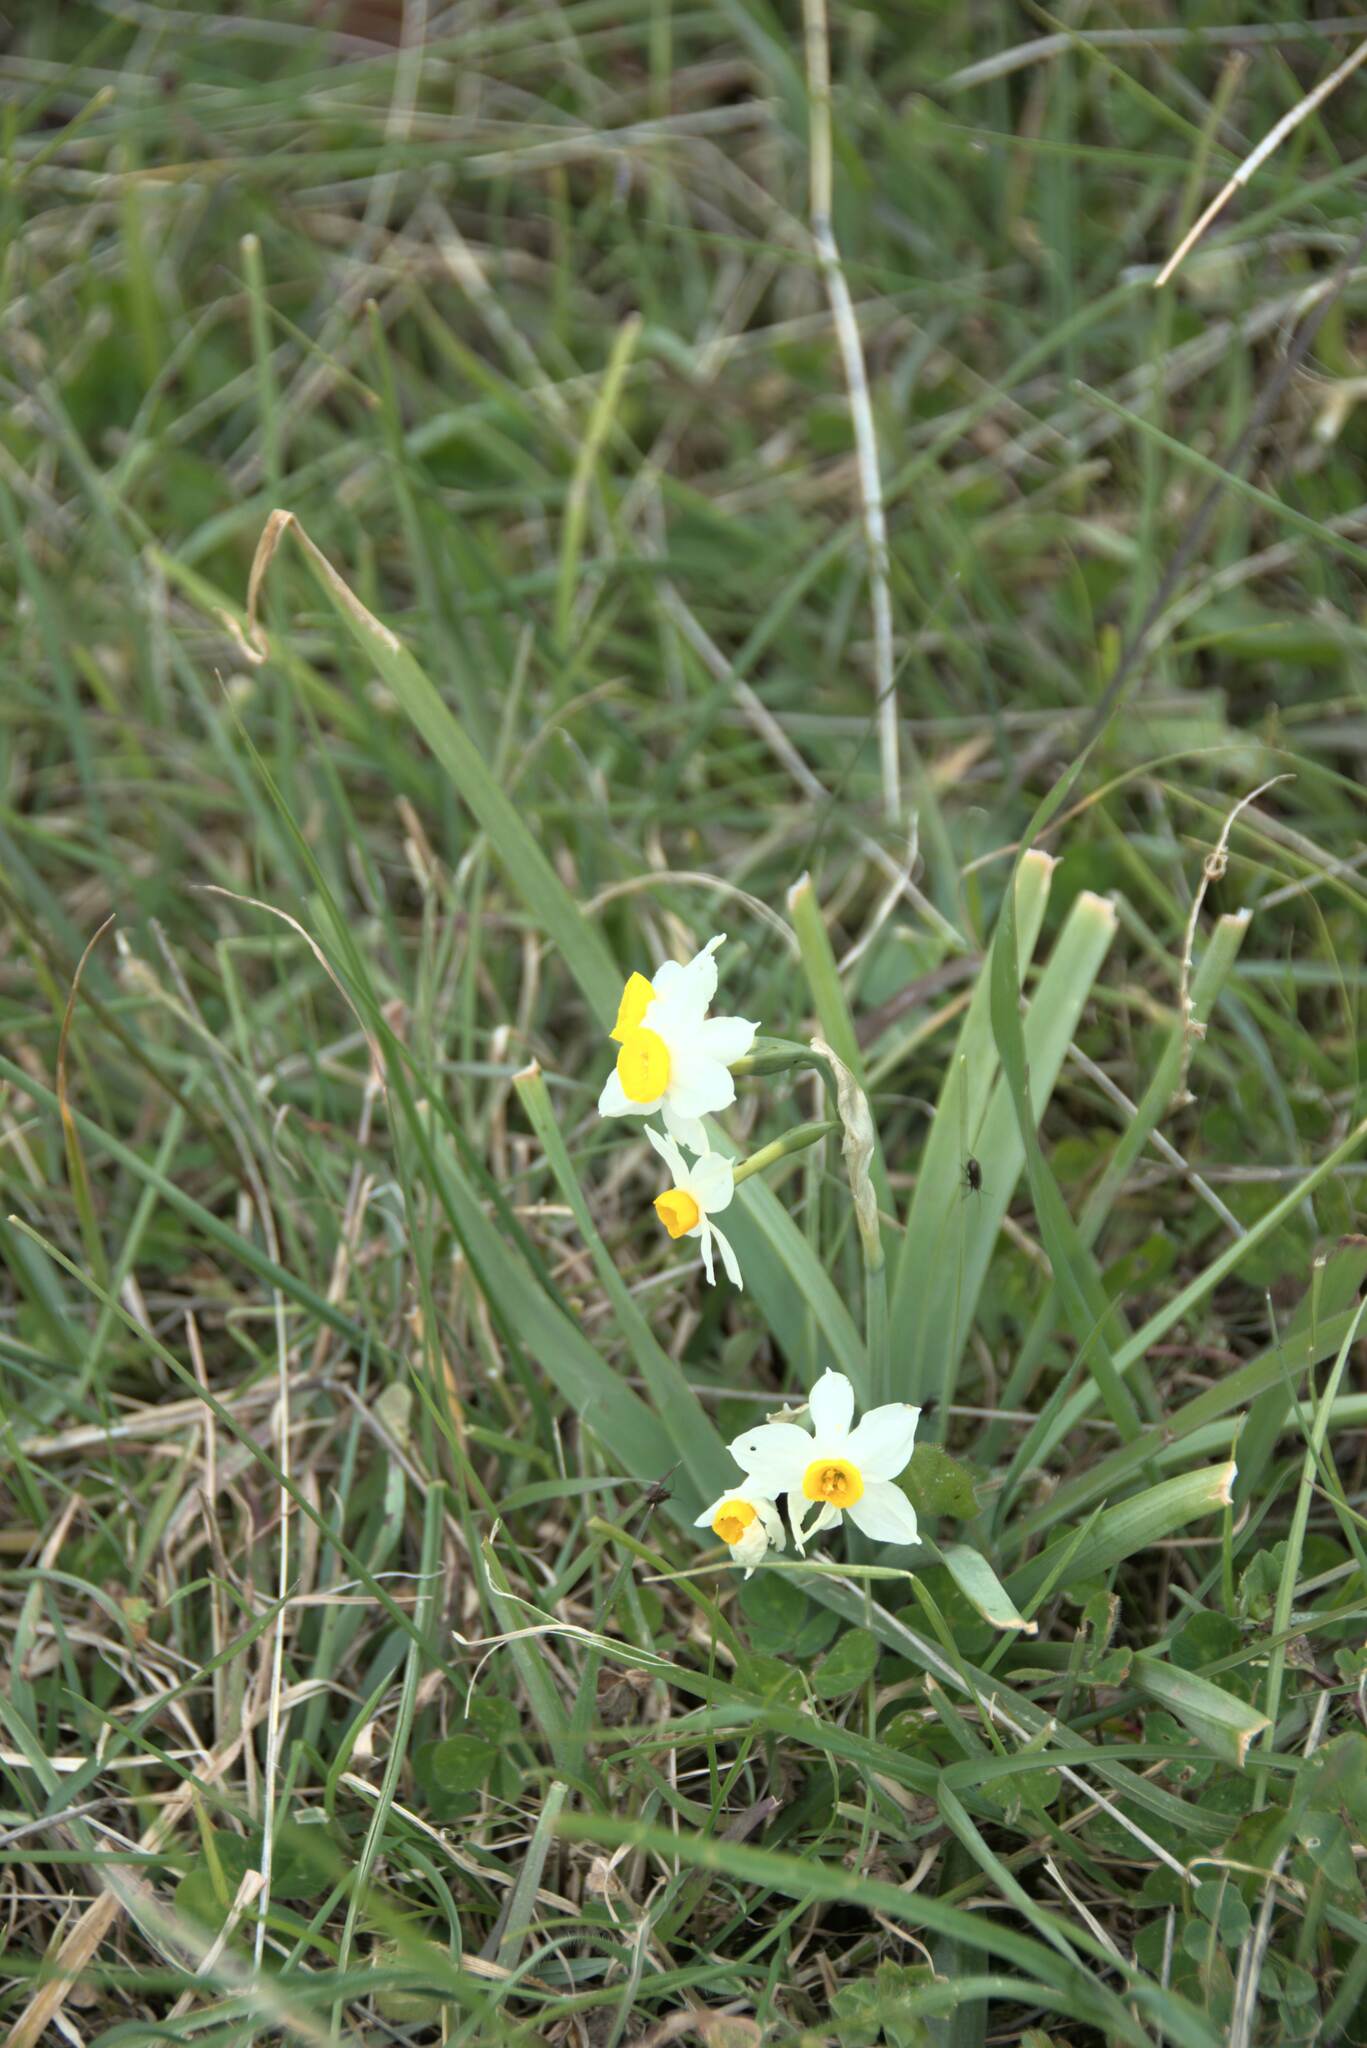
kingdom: Plantae
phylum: Tracheophyta
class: Liliopsida
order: Asparagales
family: Amaryllidaceae
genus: Narcissus
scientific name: Narcissus tazetta
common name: Bunch-flowered daffodil
